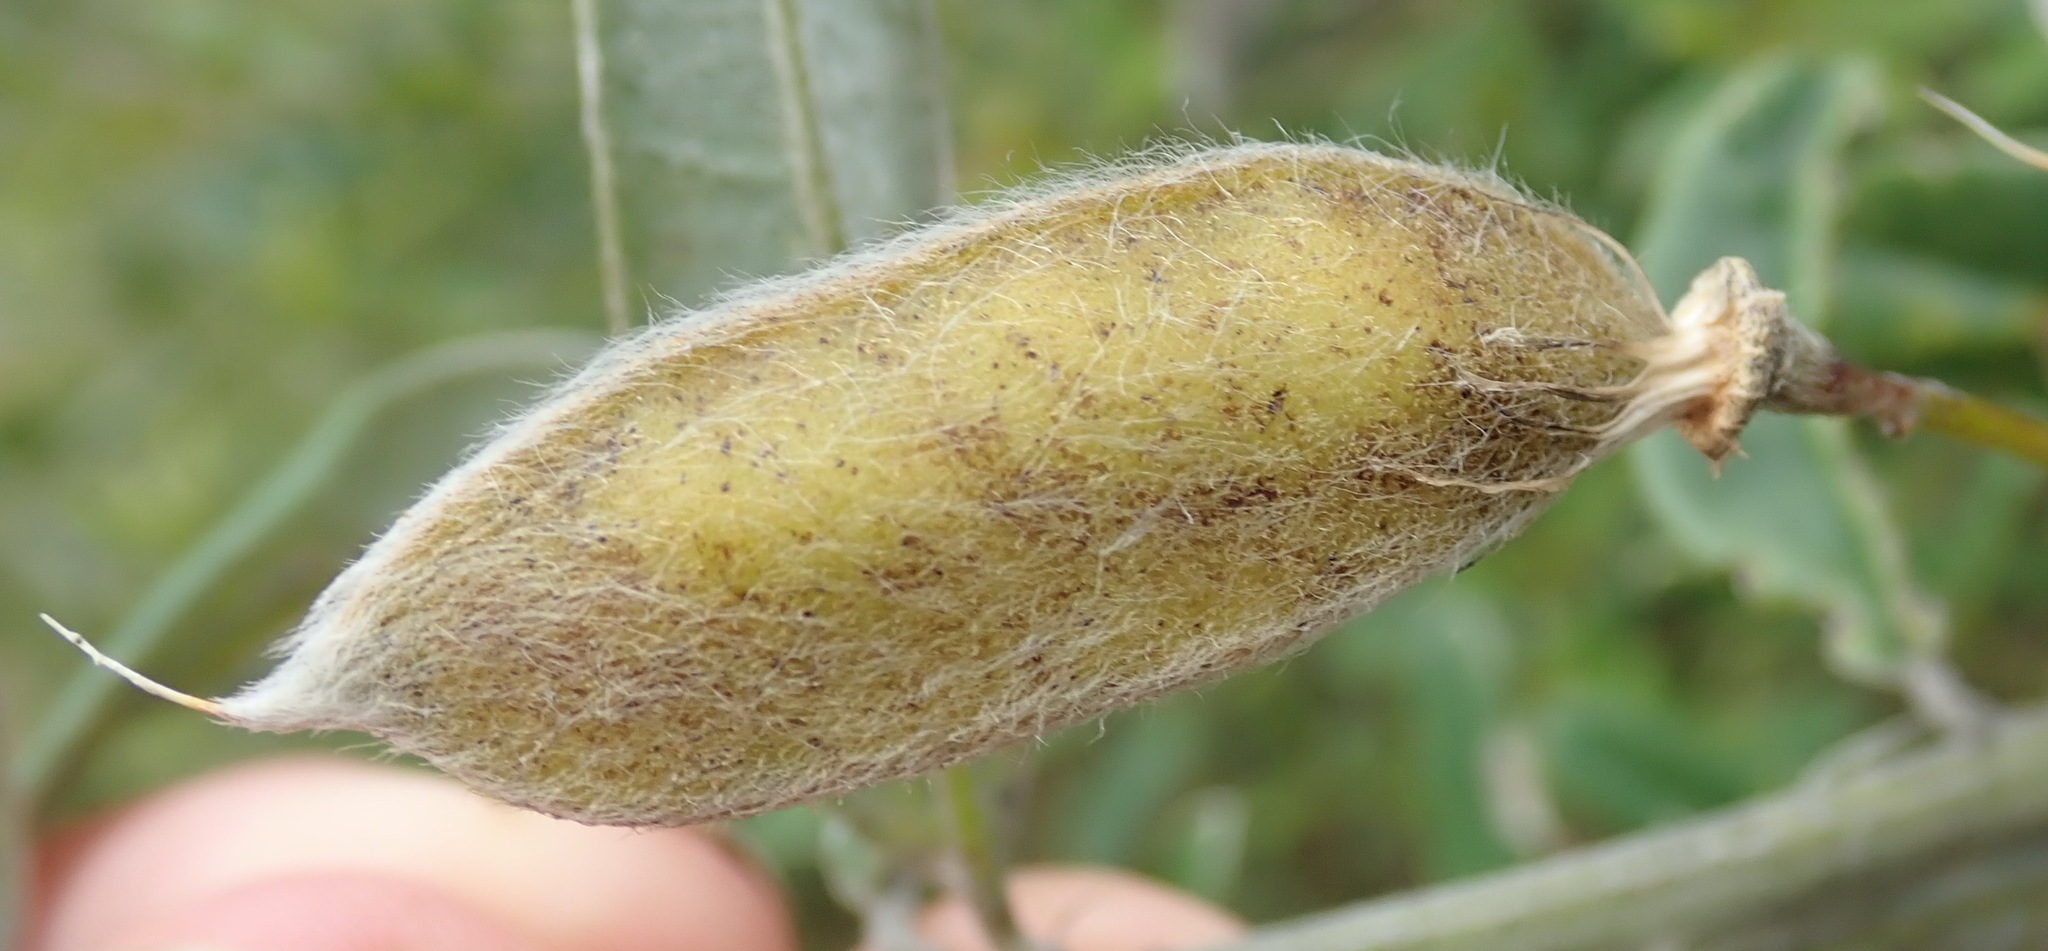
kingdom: Plantae
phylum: Tracheophyta
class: Magnoliopsida
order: Fabales
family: Fabaceae
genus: Podalyria
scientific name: Podalyria buxifolia
